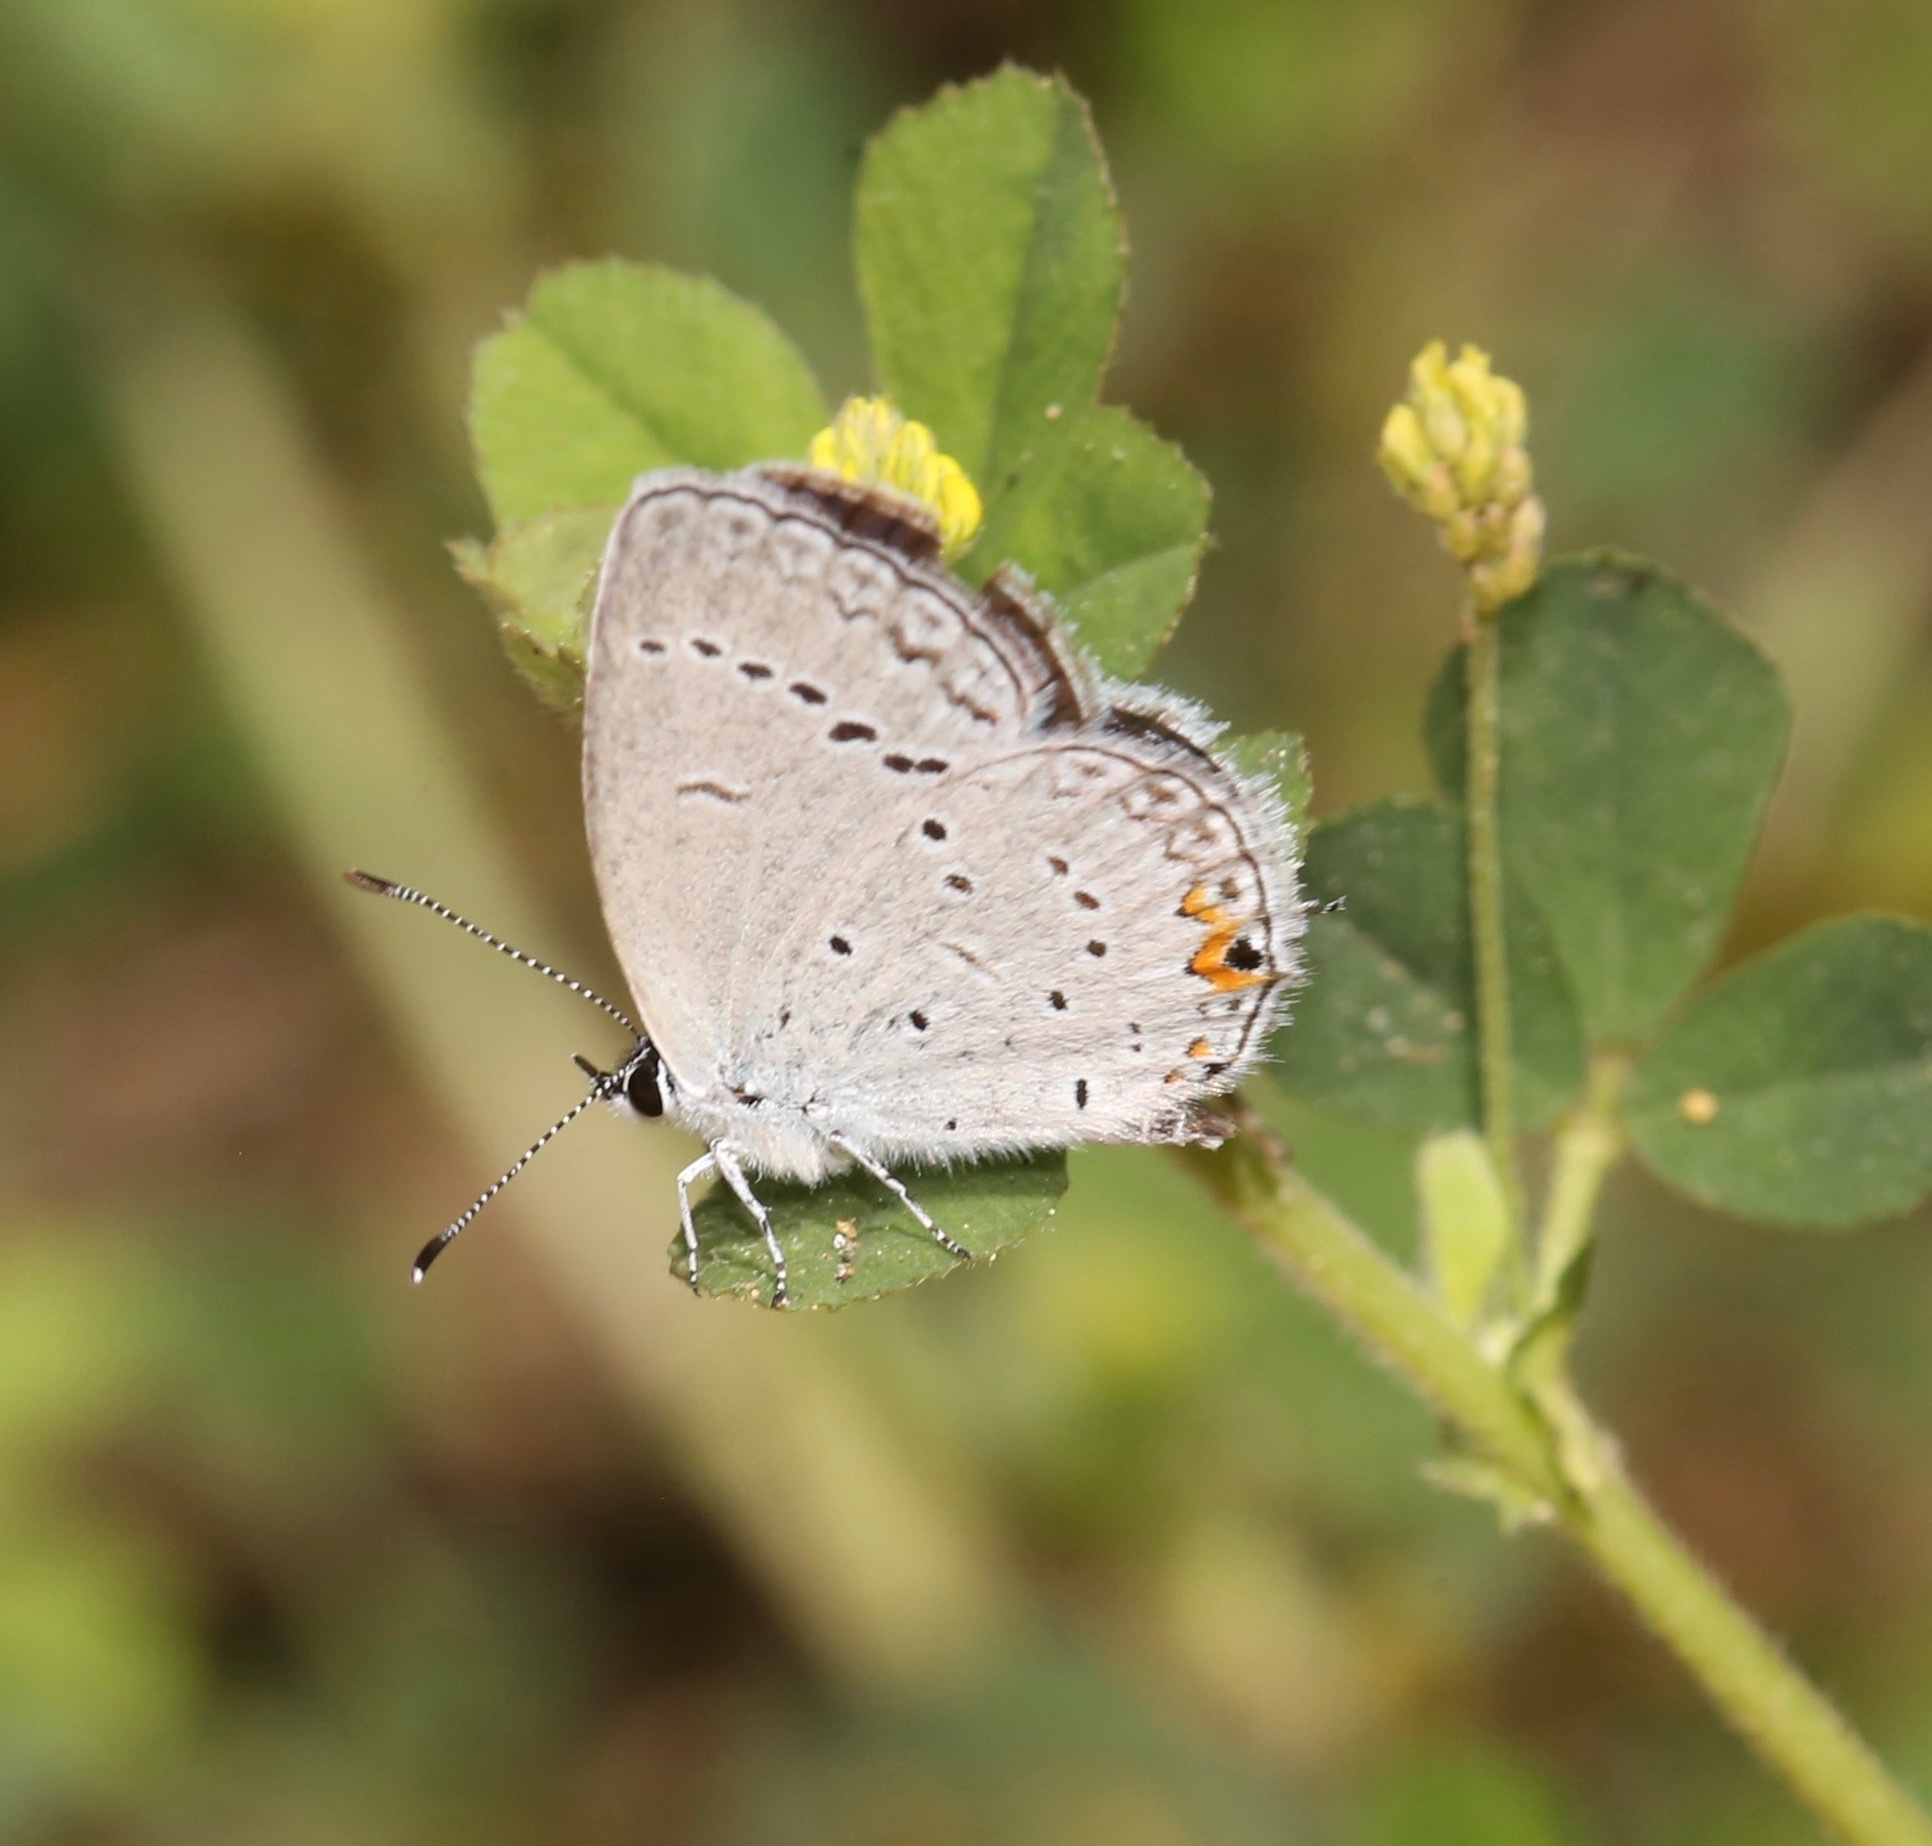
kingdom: Animalia
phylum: Arthropoda
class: Insecta
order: Lepidoptera
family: Lycaenidae
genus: Elkalyce
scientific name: Elkalyce comyntas
